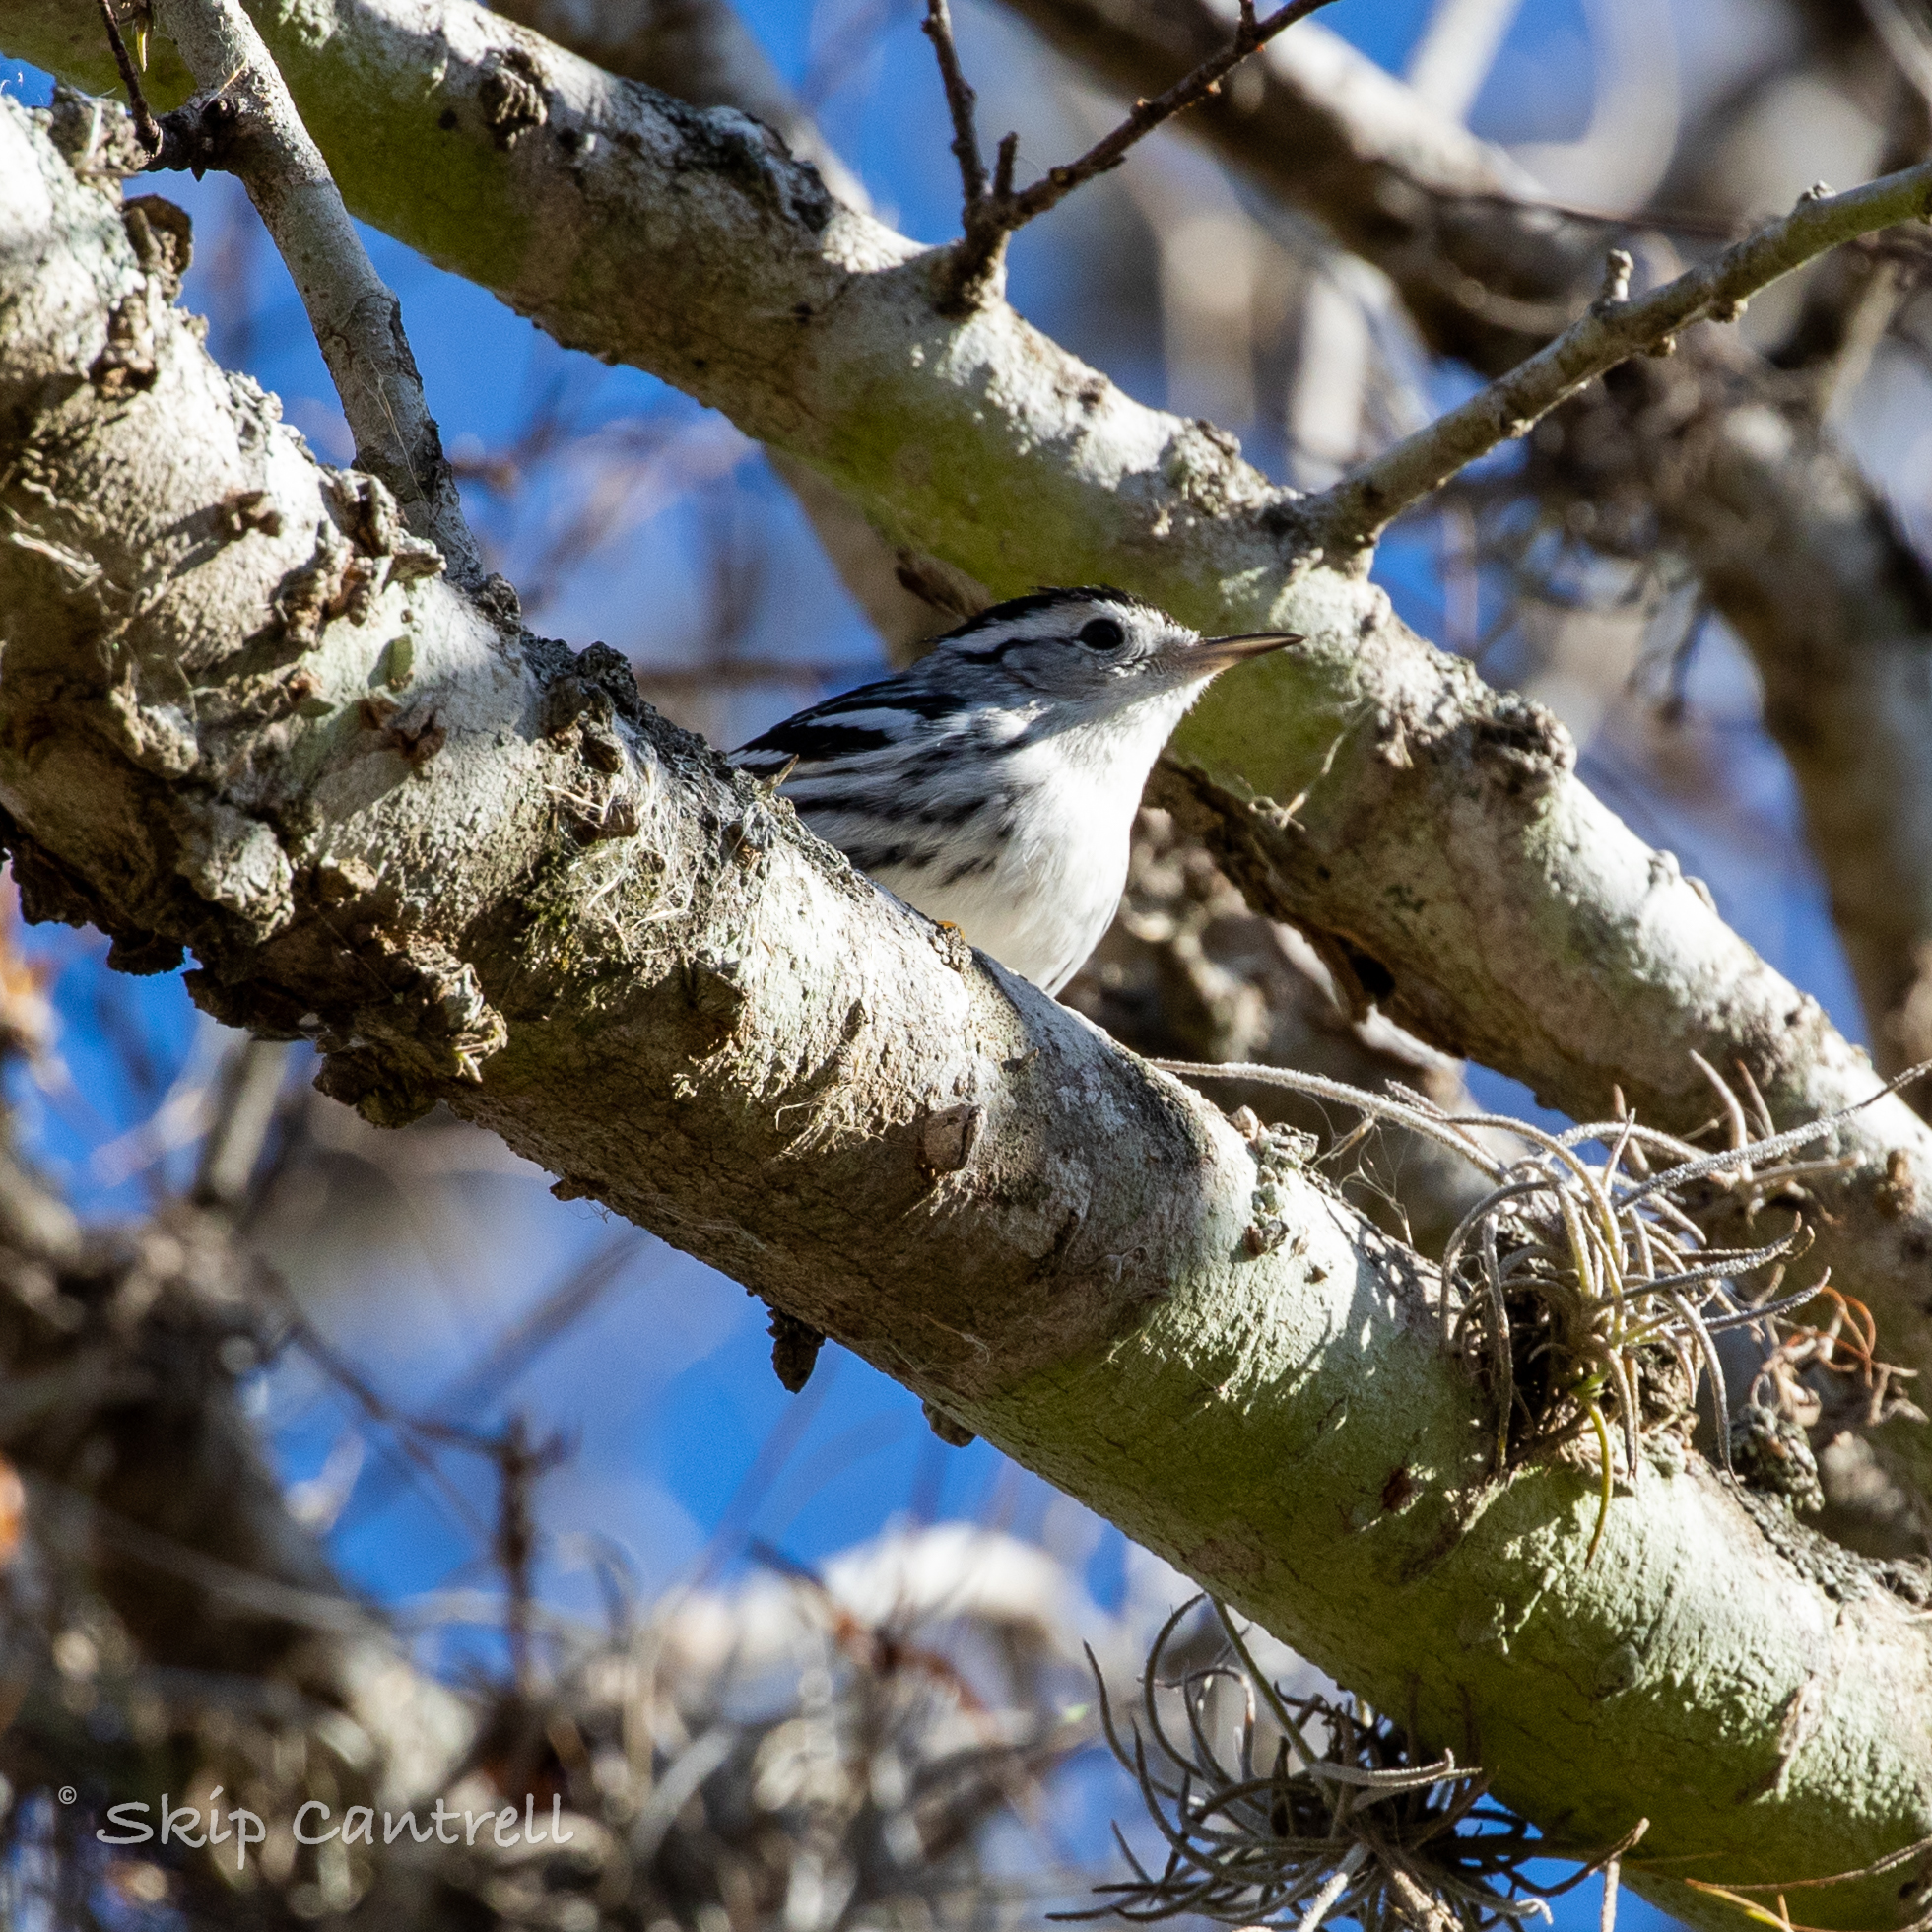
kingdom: Animalia
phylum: Chordata
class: Aves
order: Passeriformes
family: Parulidae
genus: Mniotilta
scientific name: Mniotilta varia
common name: Black-and-white warbler
